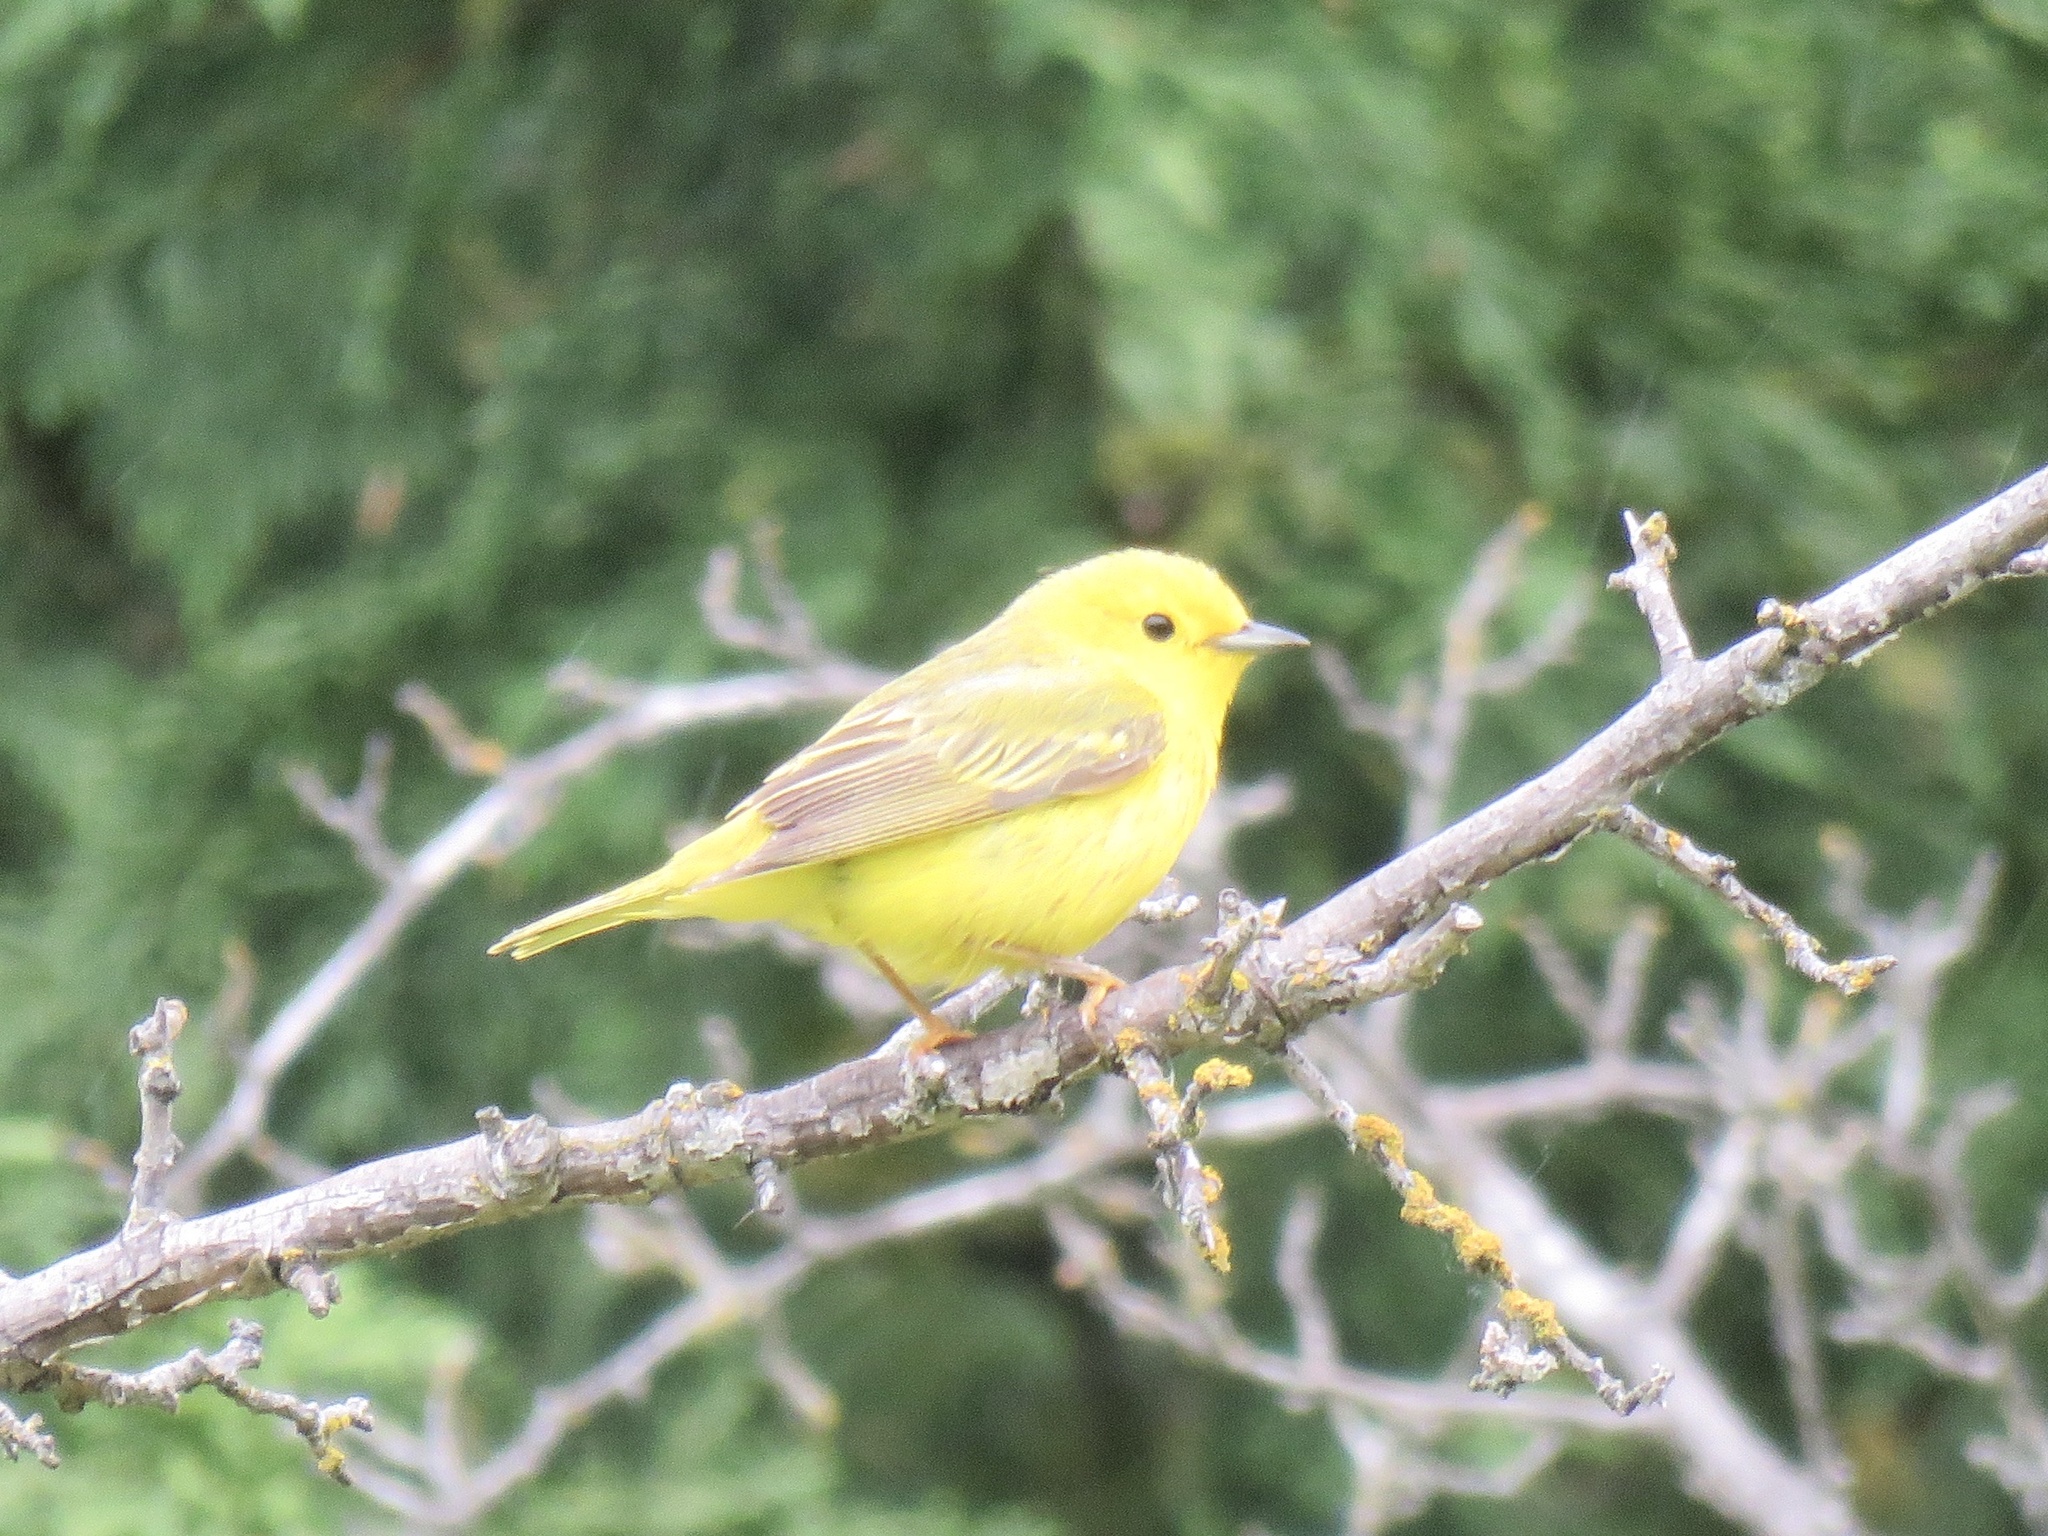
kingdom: Animalia
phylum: Chordata
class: Aves
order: Passeriformes
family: Parulidae
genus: Setophaga
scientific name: Setophaga petechia
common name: Yellow warbler
